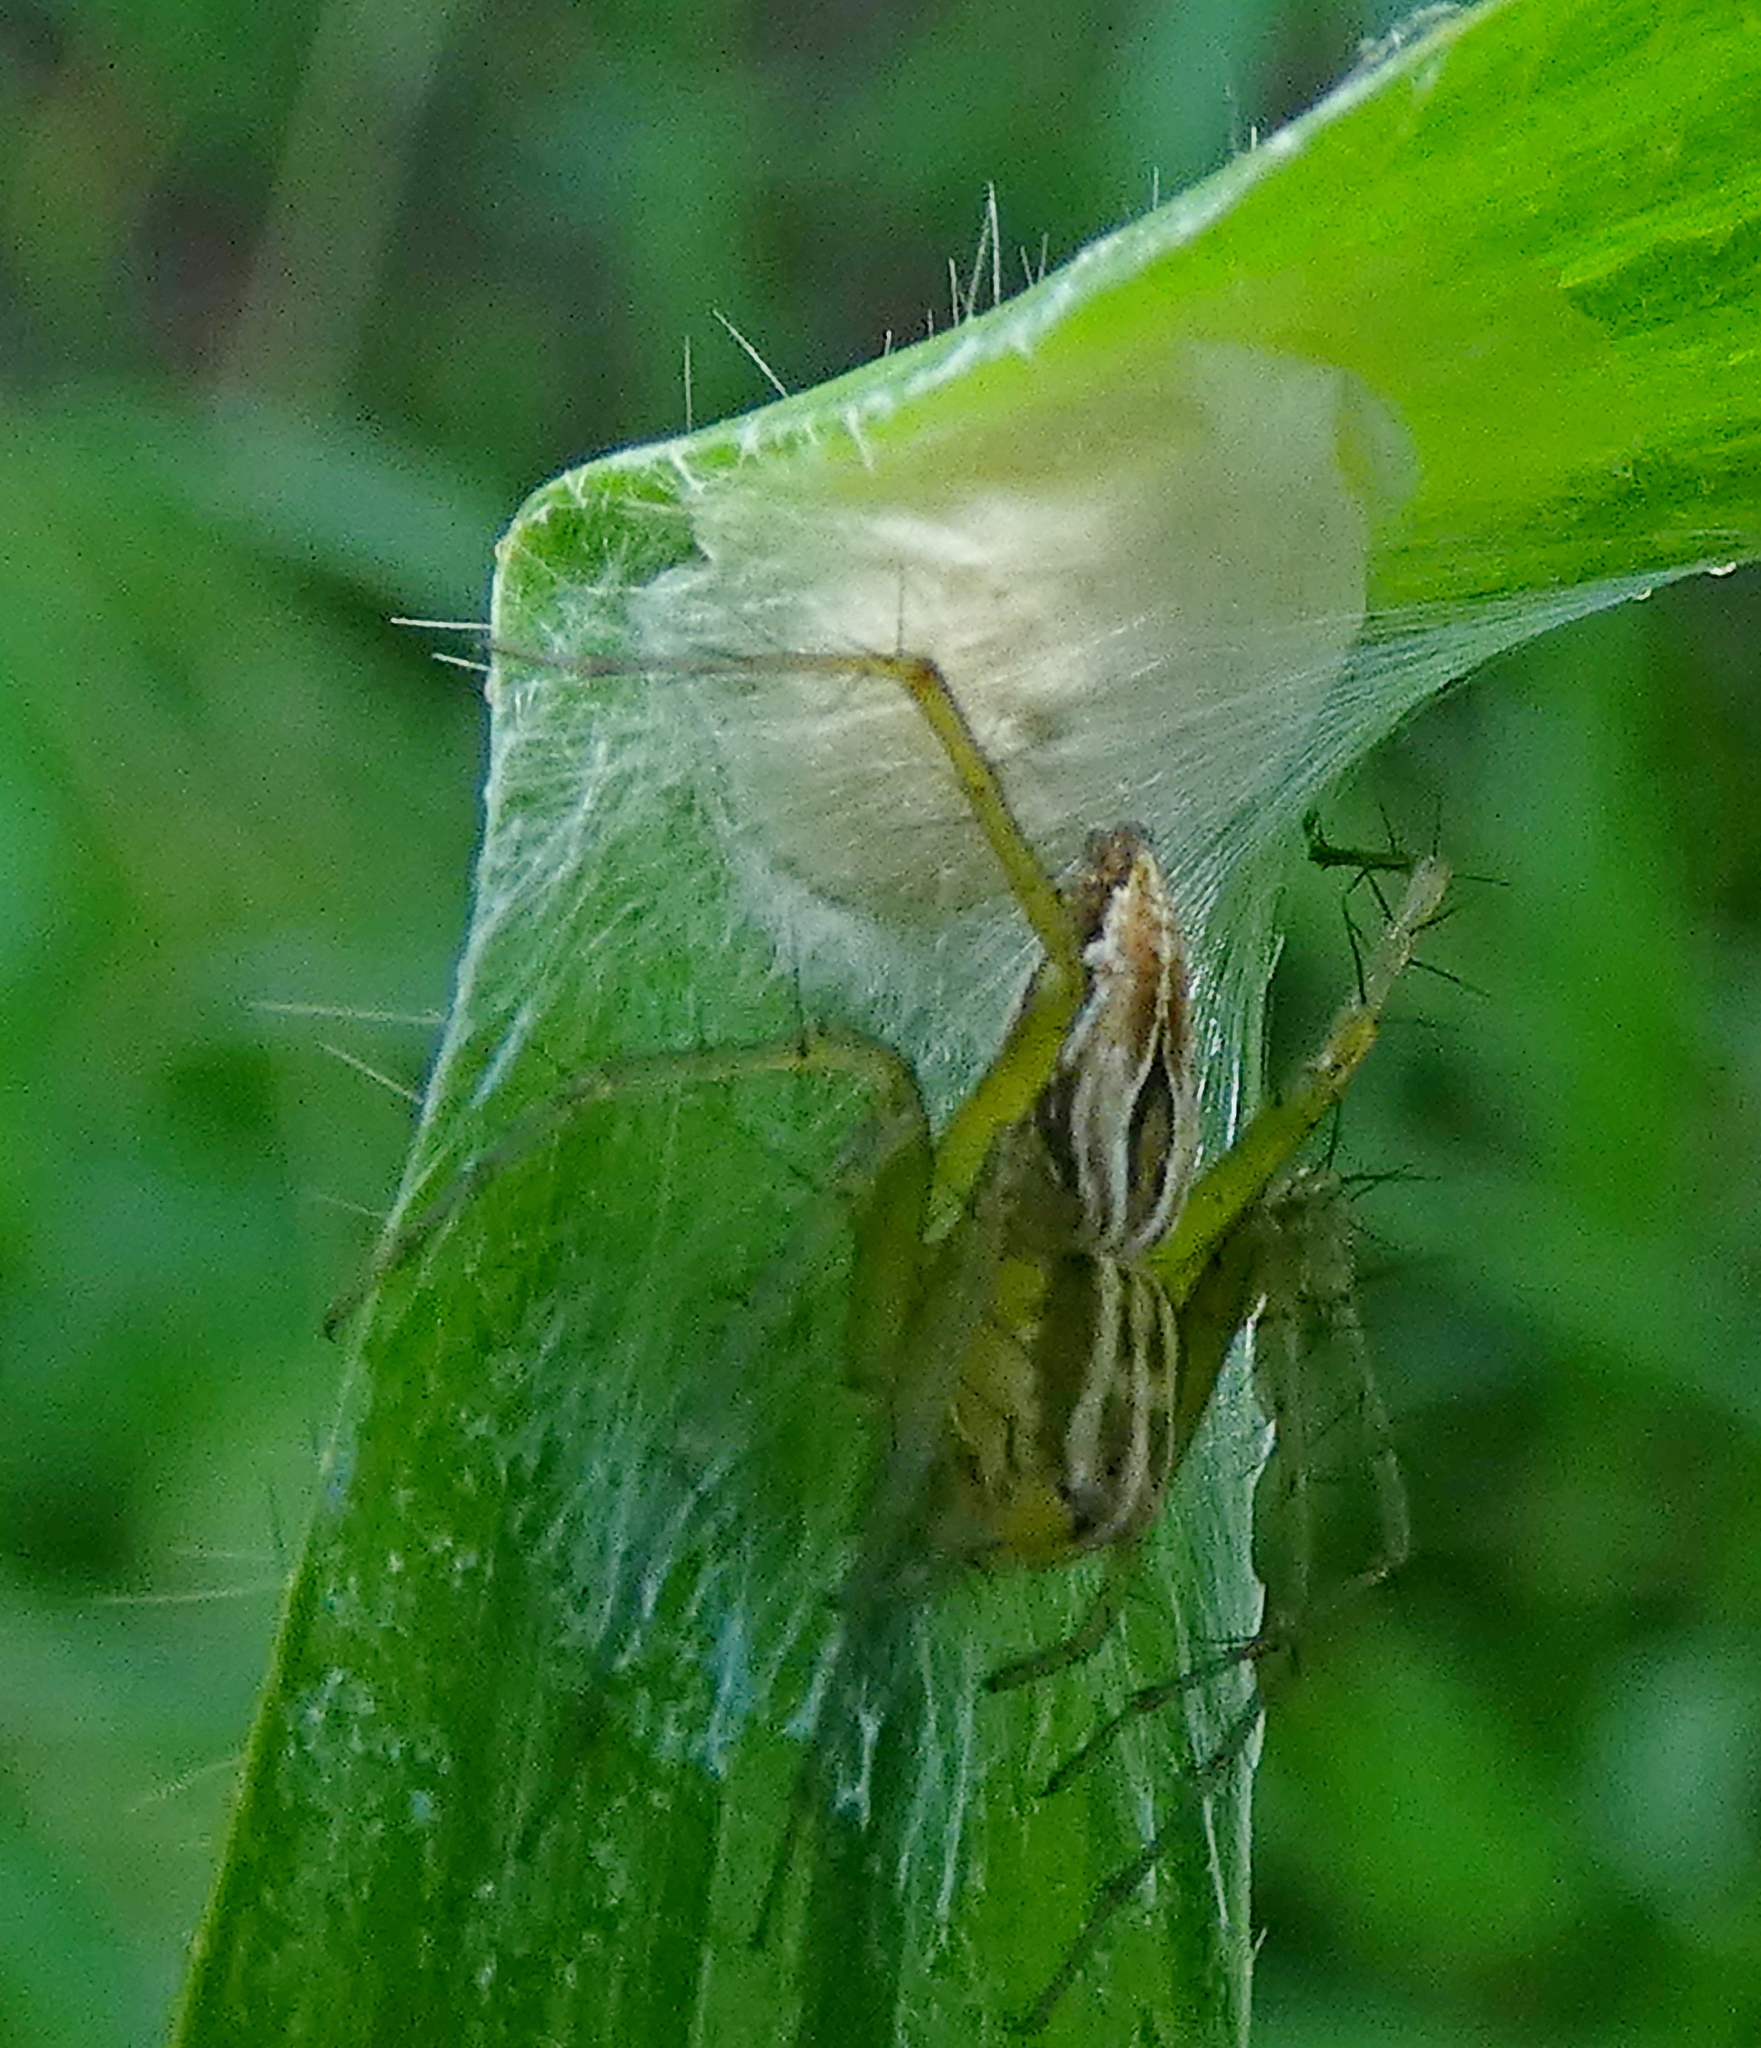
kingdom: Animalia
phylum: Arthropoda
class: Arachnida
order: Araneae
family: Oxyopidae
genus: Oxyopes
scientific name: Oxyopes salticus
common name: Lynx spiders
